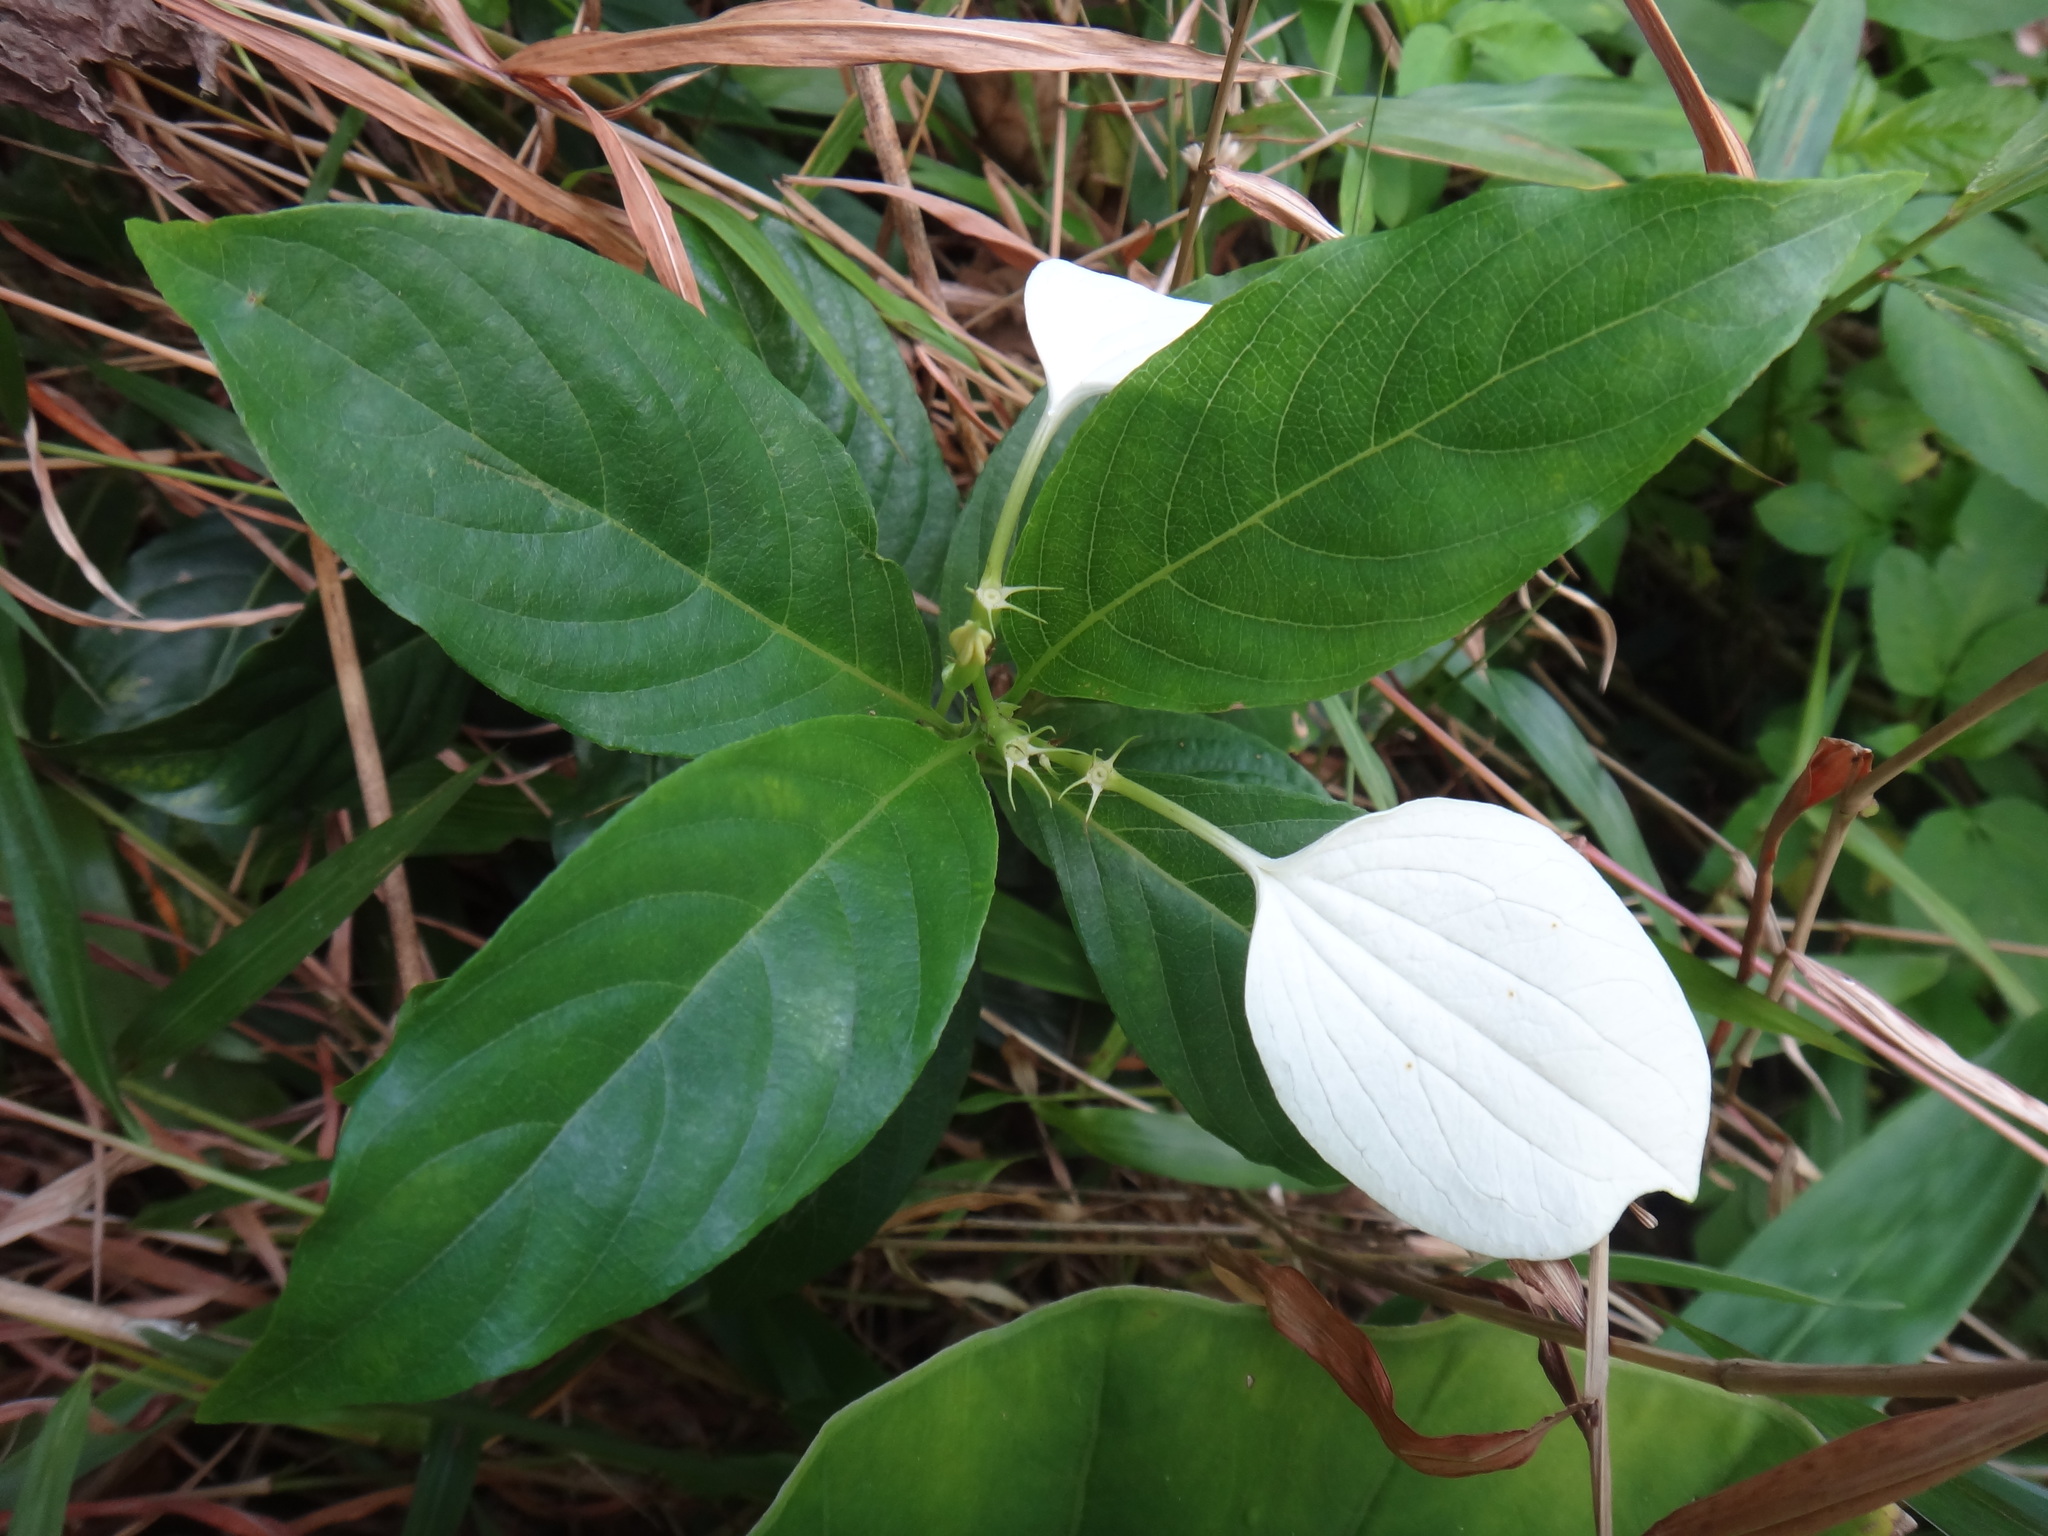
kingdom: Plantae
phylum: Tracheophyta
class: Magnoliopsida
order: Gentianales
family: Rubiaceae
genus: Mussaenda
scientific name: Mussaenda formosana
